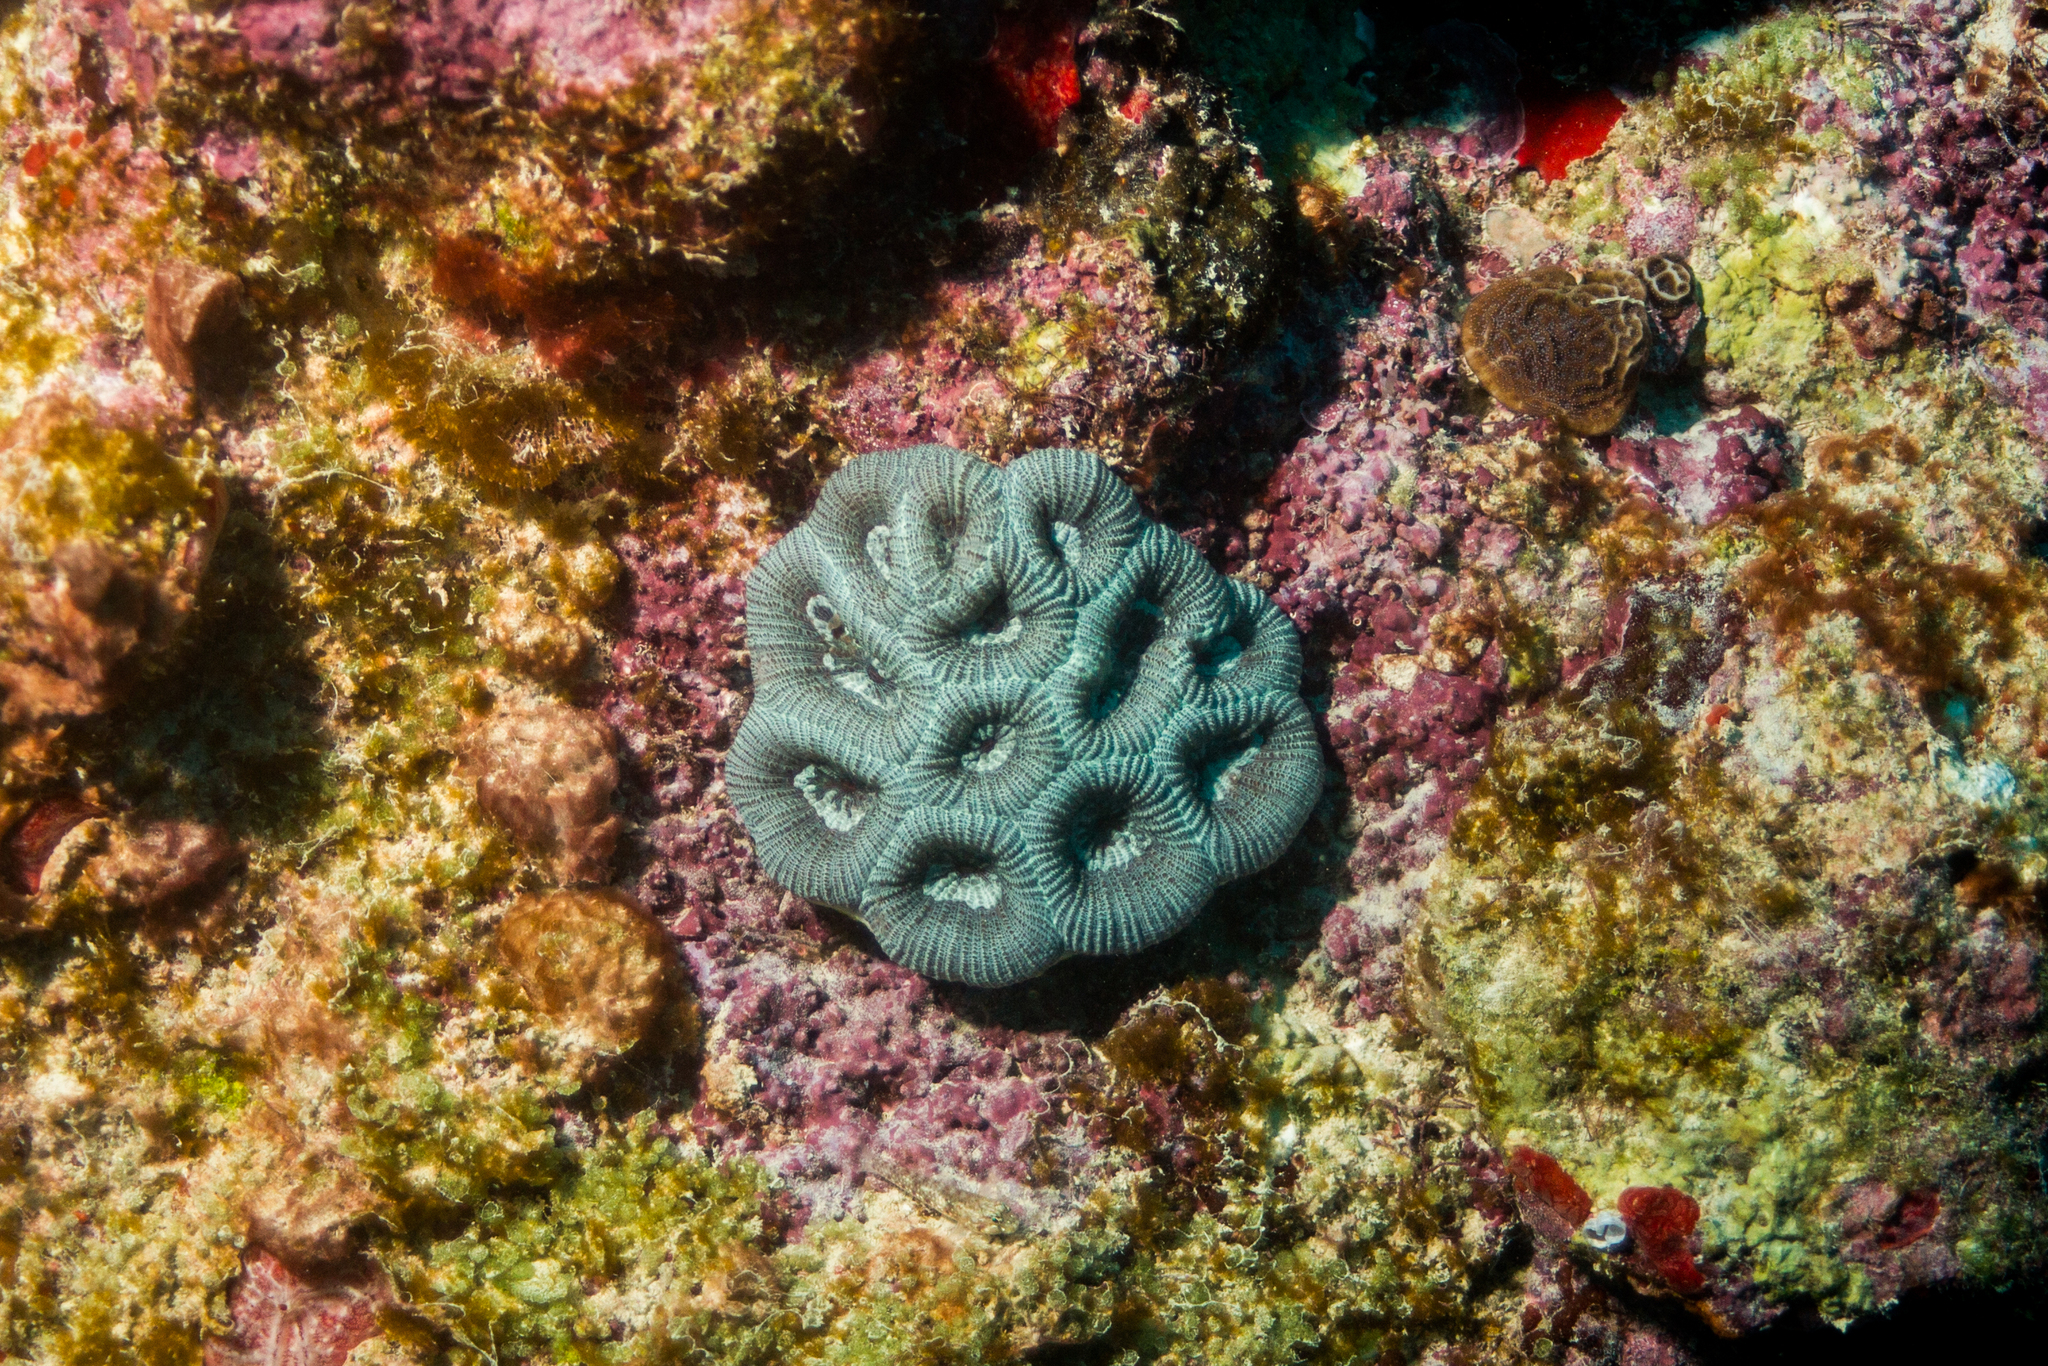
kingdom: Animalia
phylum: Cnidaria
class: Anthozoa
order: Scleractinia
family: Faviidae
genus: Mussismilia
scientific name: Mussismilia hispida
